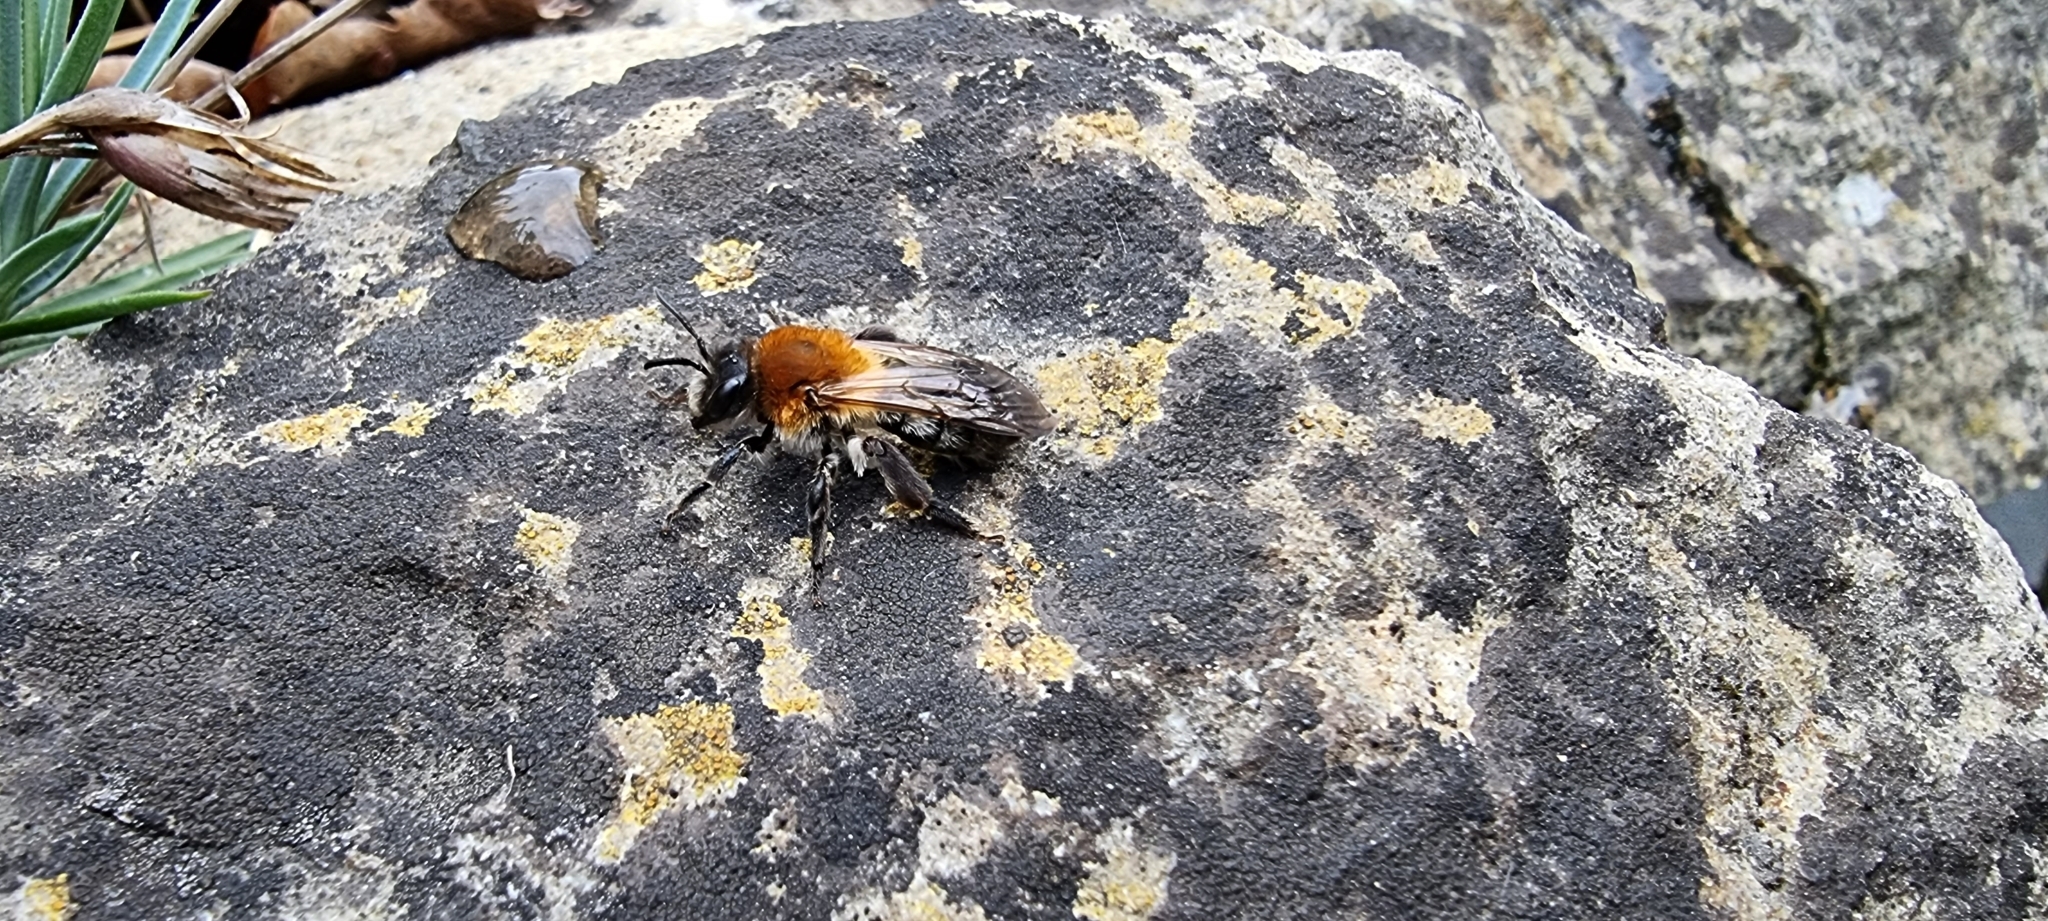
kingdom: Animalia
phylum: Arthropoda
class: Insecta
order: Hymenoptera
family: Andrenidae
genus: Andrena
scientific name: Andrena nitida
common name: Grey-patched mining bee
